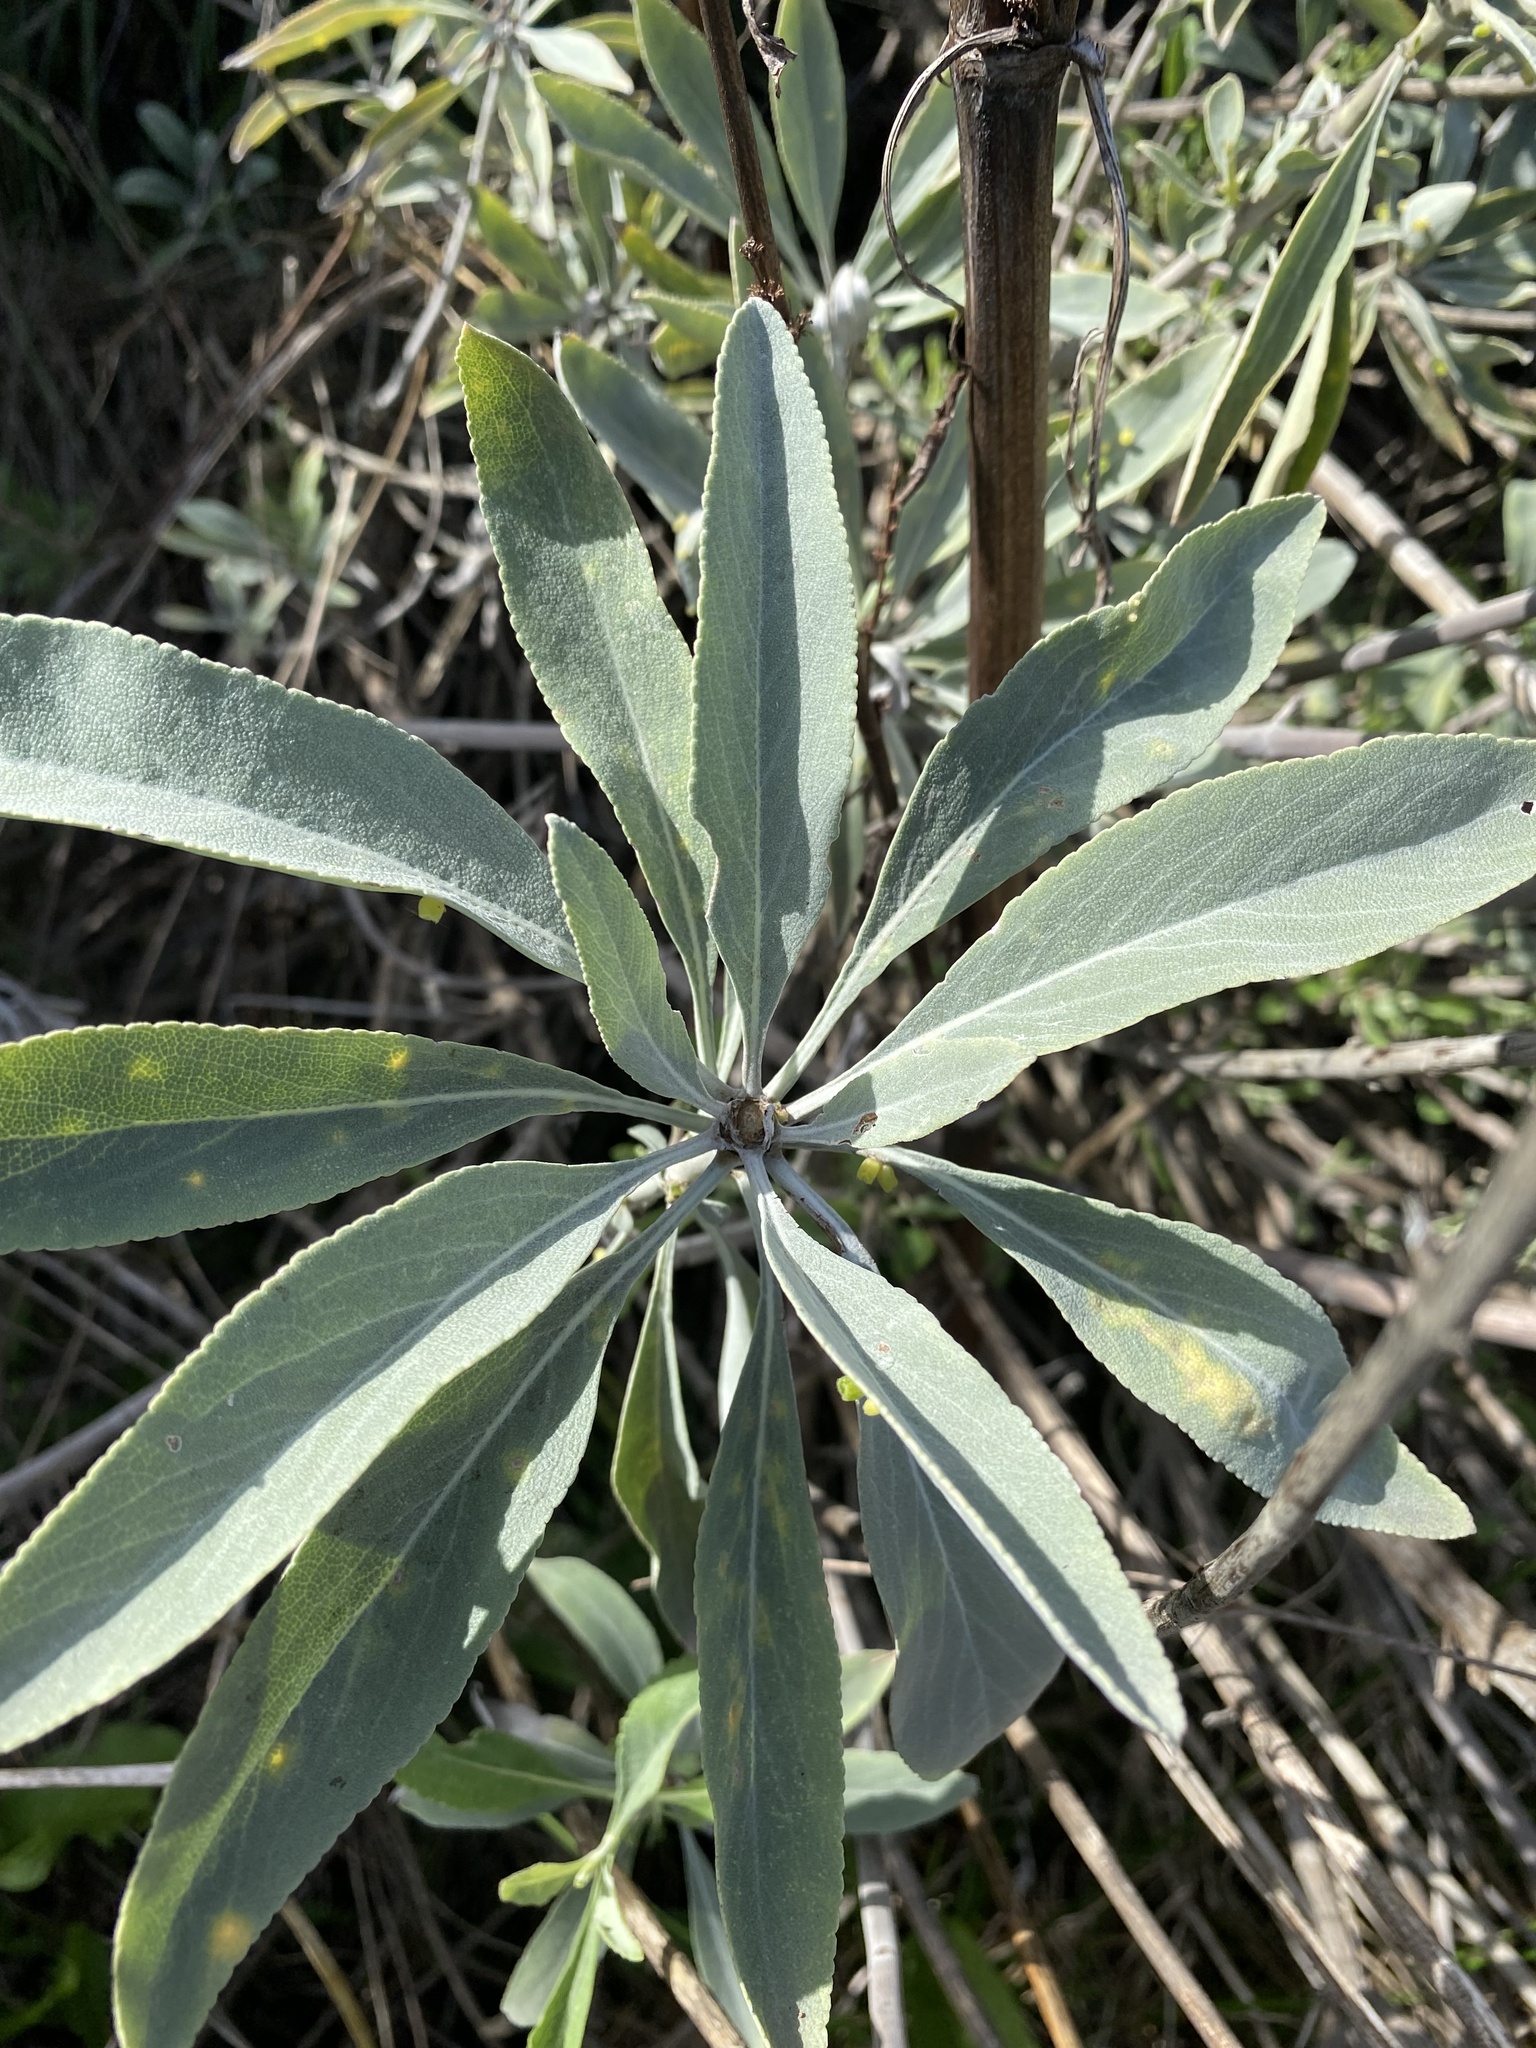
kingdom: Plantae
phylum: Tracheophyta
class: Magnoliopsida
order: Lamiales
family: Lamiaceae
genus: Salvia
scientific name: Salvia apiana
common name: White sage
